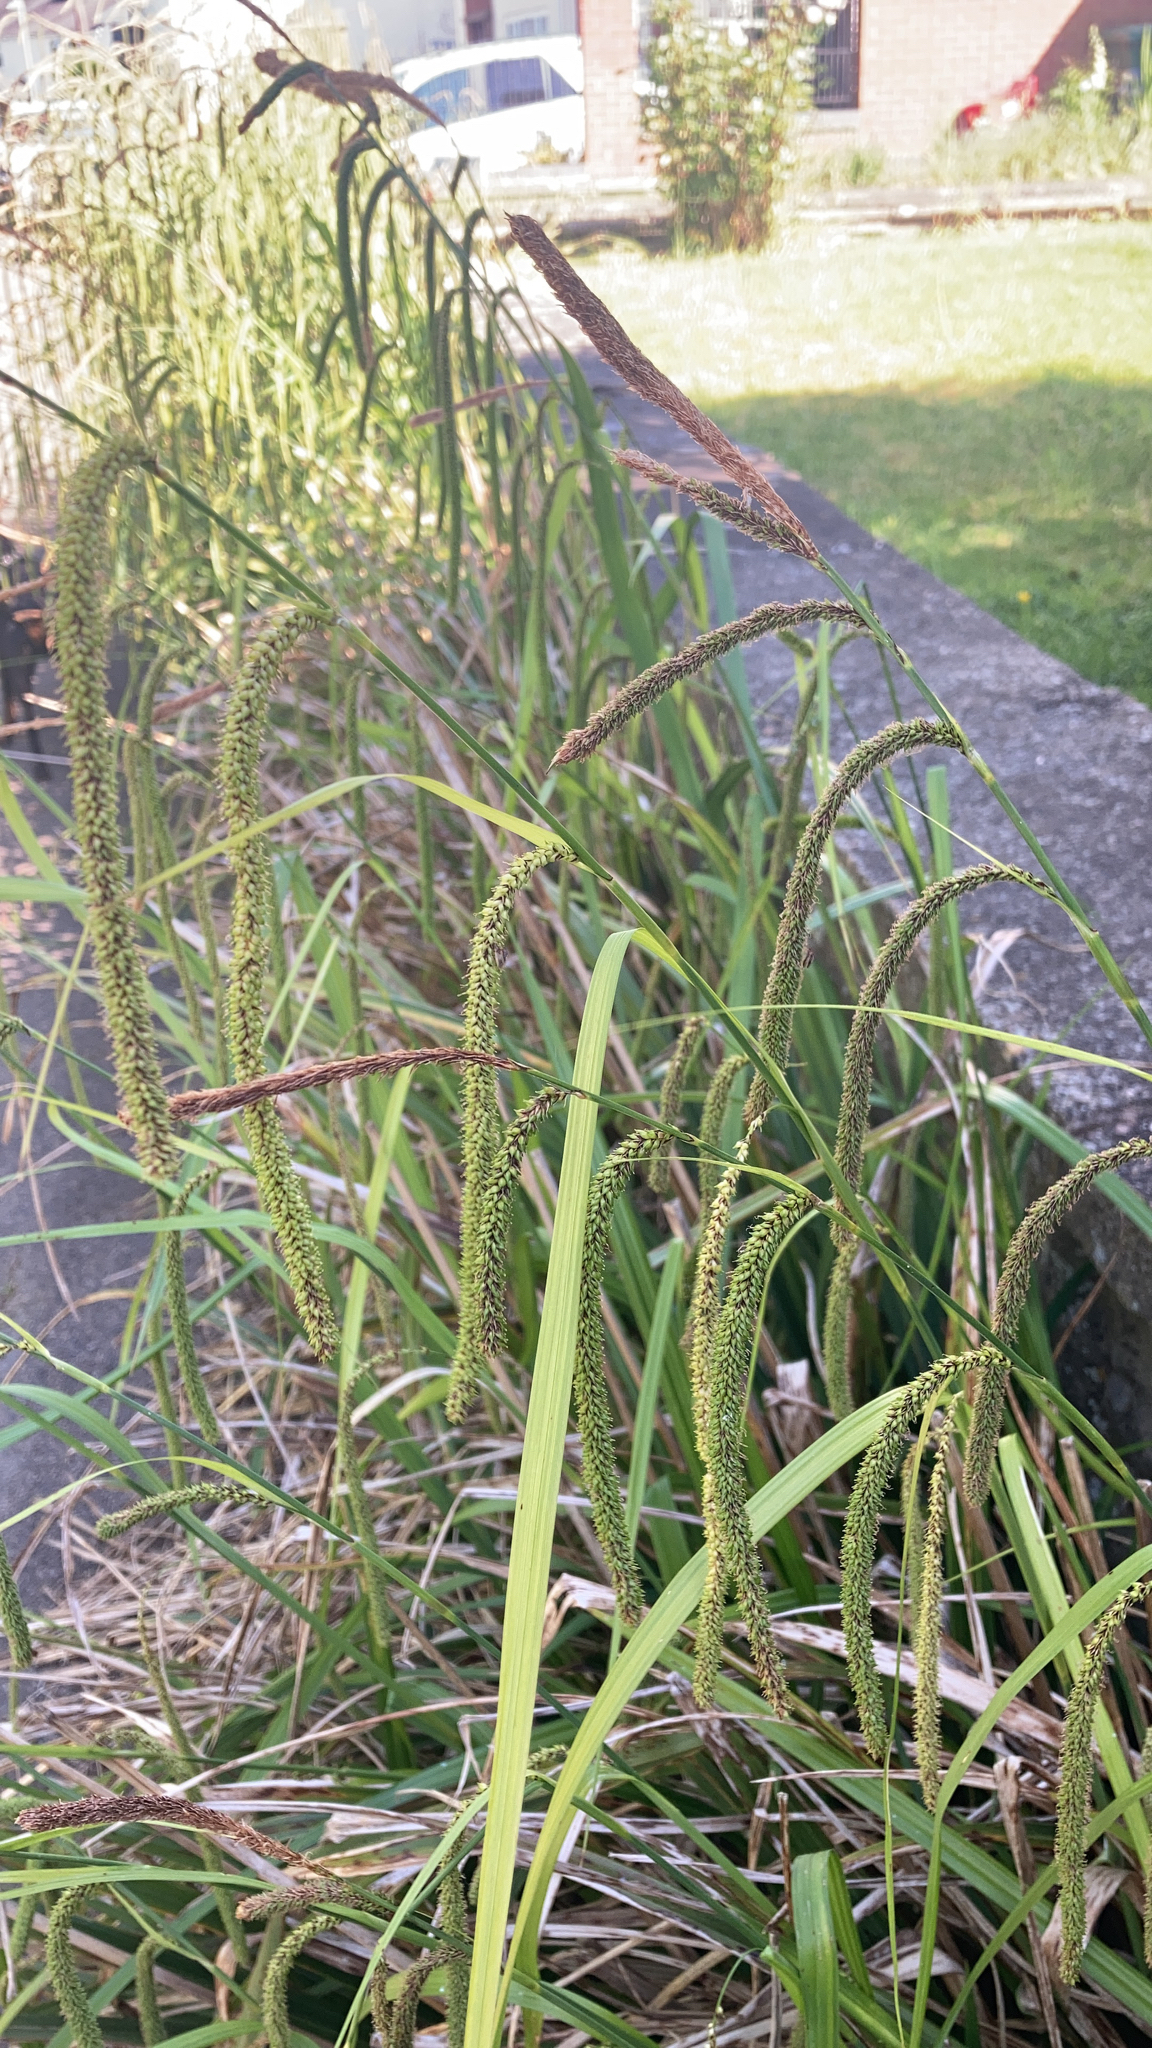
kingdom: Plantae
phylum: Tracheophyta
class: Liliopsida
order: Poales
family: Cyperaceae
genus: Carex
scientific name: Carex pendula
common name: Pendulous sedge
